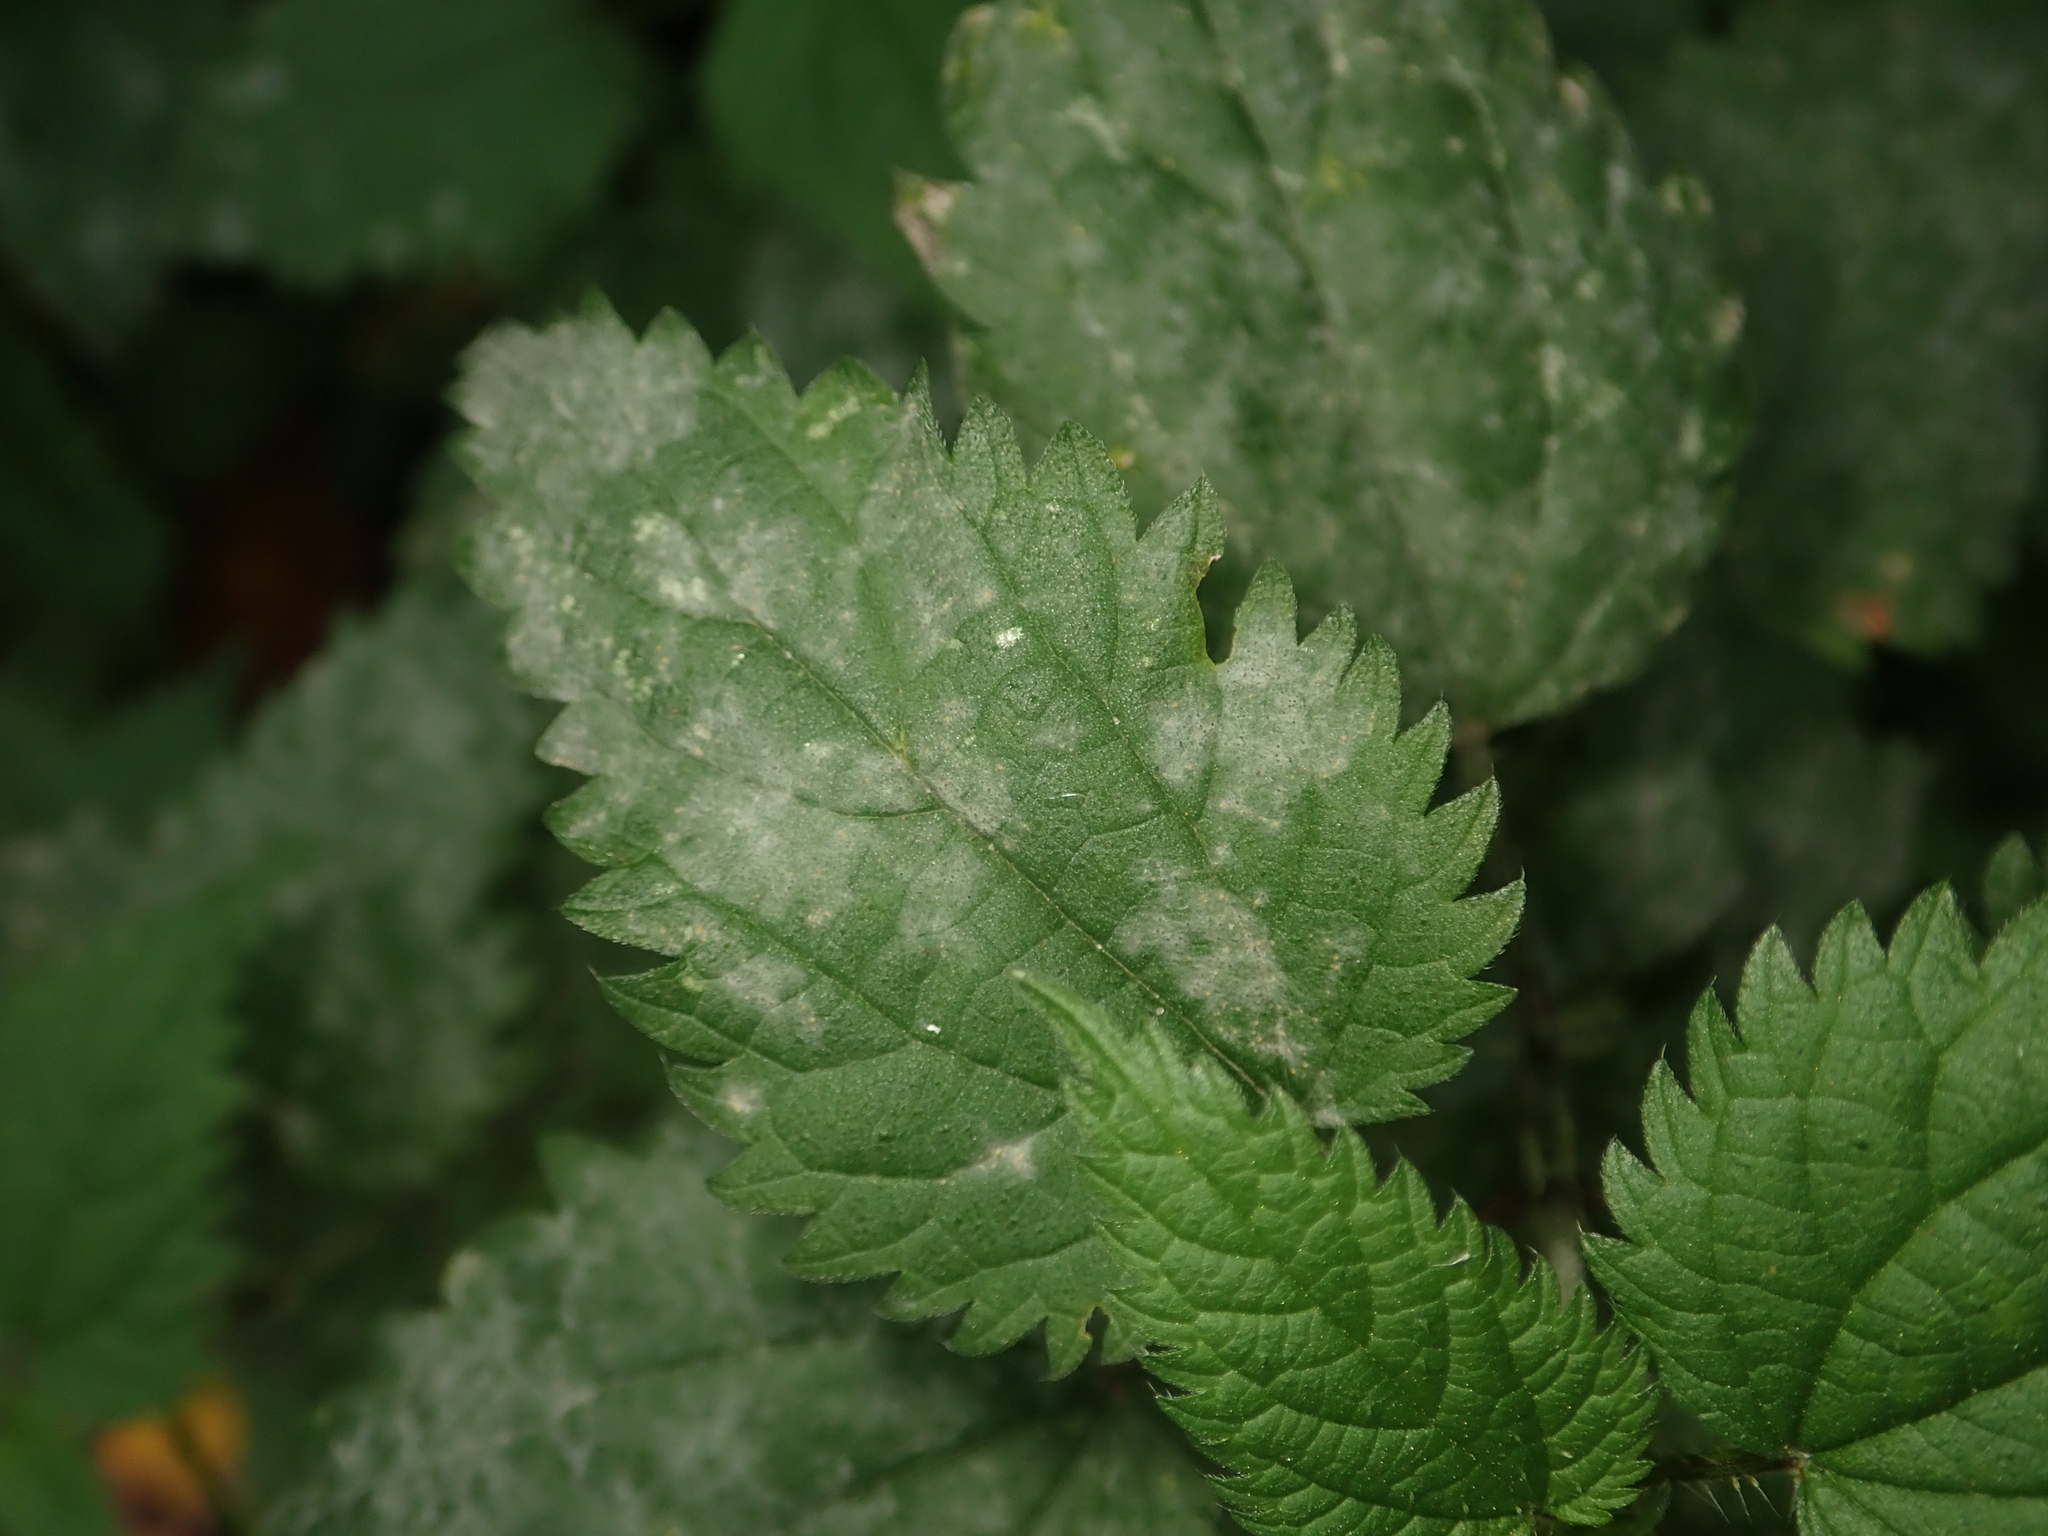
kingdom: Fungi
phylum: Ascomycota
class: Leotiomycetes
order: Helotiales
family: Erysiphaceae
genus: Erysiphe
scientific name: Erysiphe urticae
